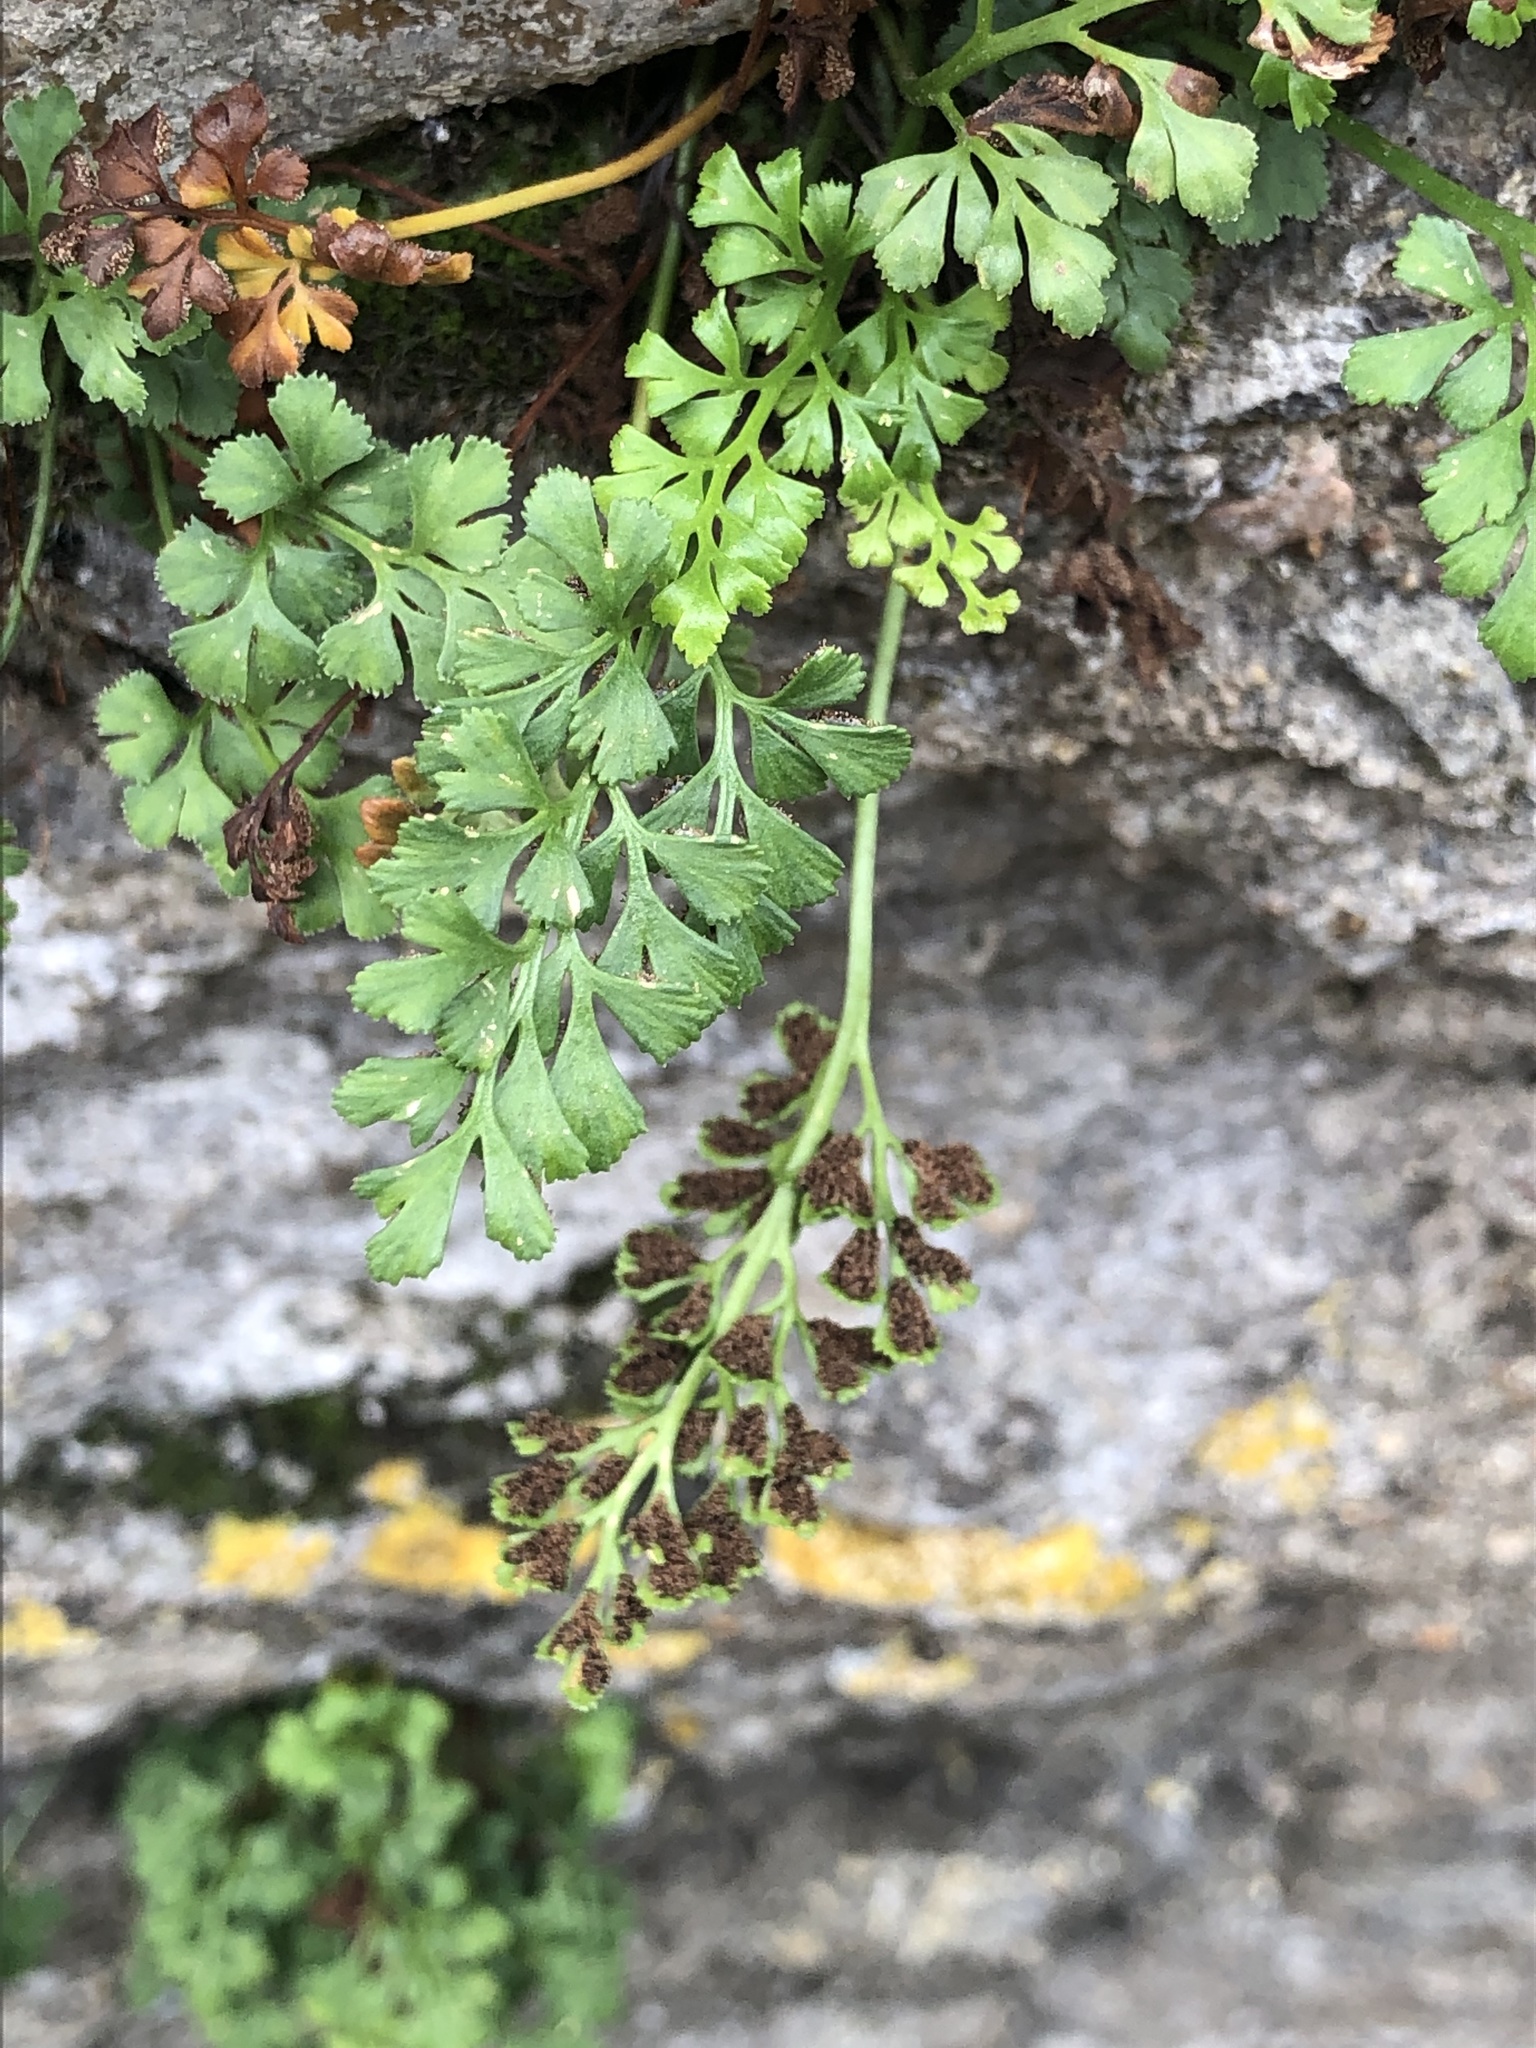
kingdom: Plantae
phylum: Tracheophyta
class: Polypodiopsida
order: Polypodiales
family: Aspleniaceae
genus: Asplenium
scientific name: Asplenium ruta-muraria
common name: Wall-rue
